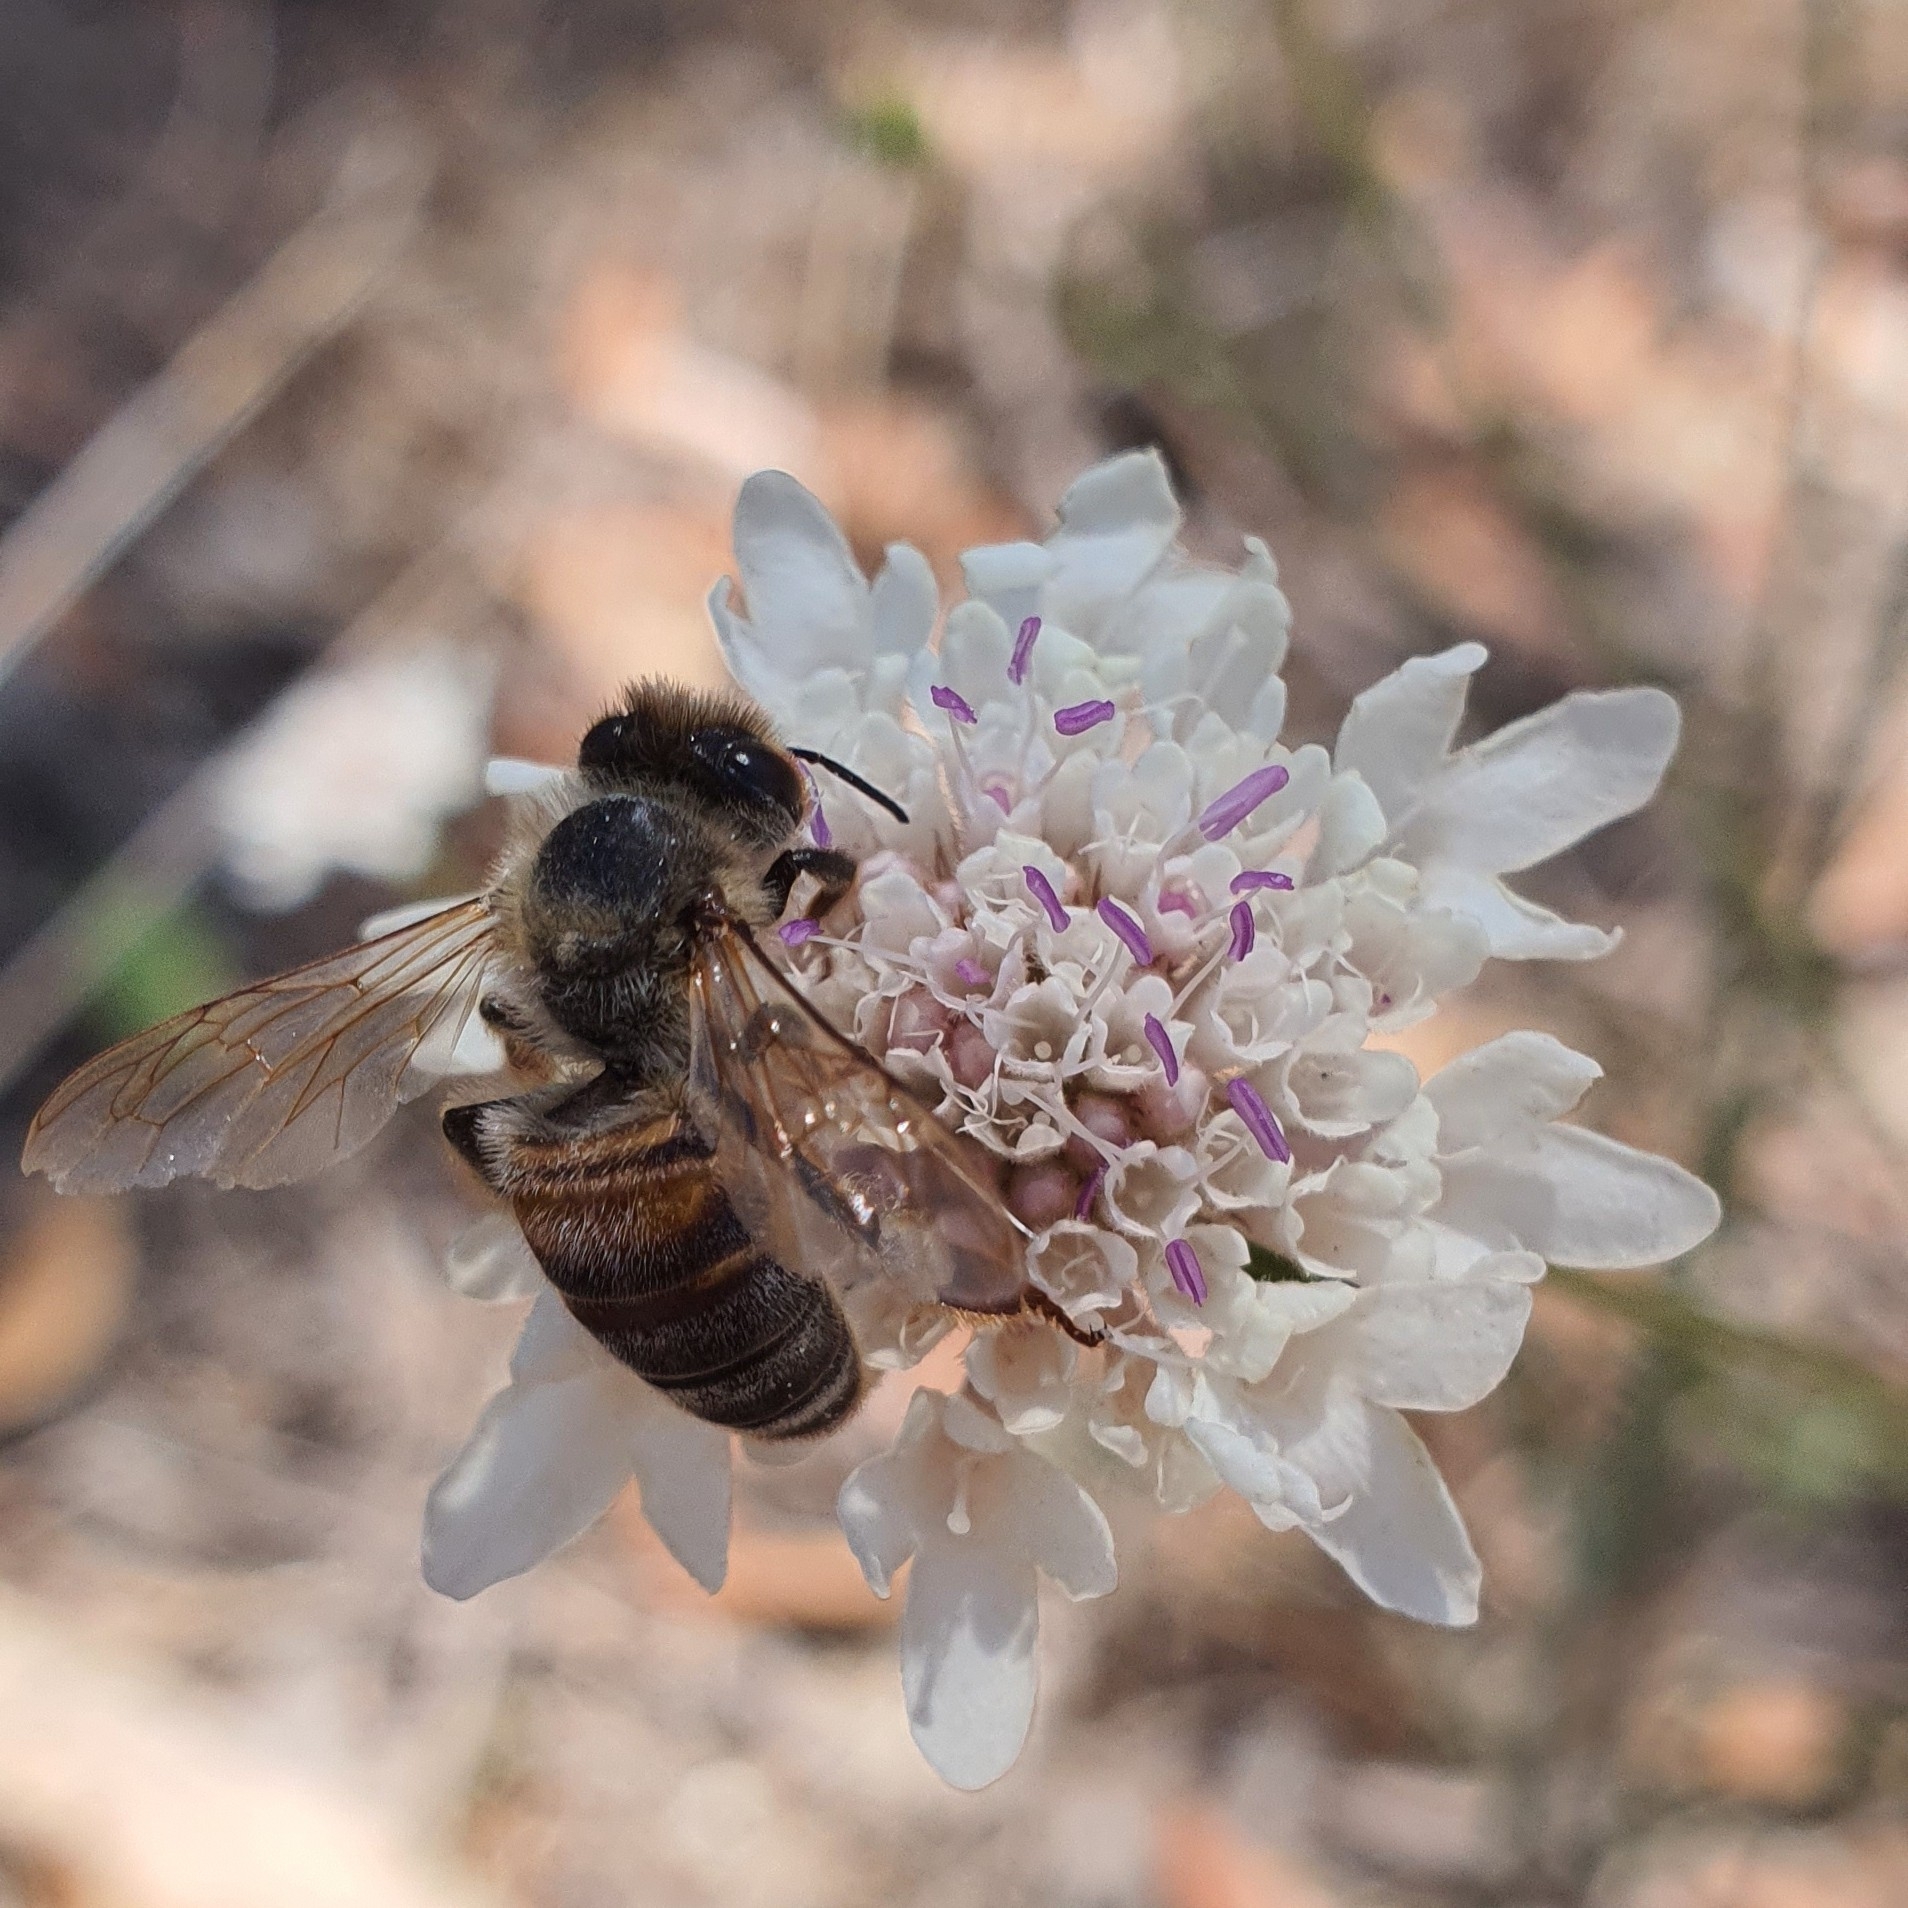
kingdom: Animalia
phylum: Arthropoda
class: Insecta
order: Hymenoptera
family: Apidae
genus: Apis
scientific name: Apis mellifera
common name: Honey bee
